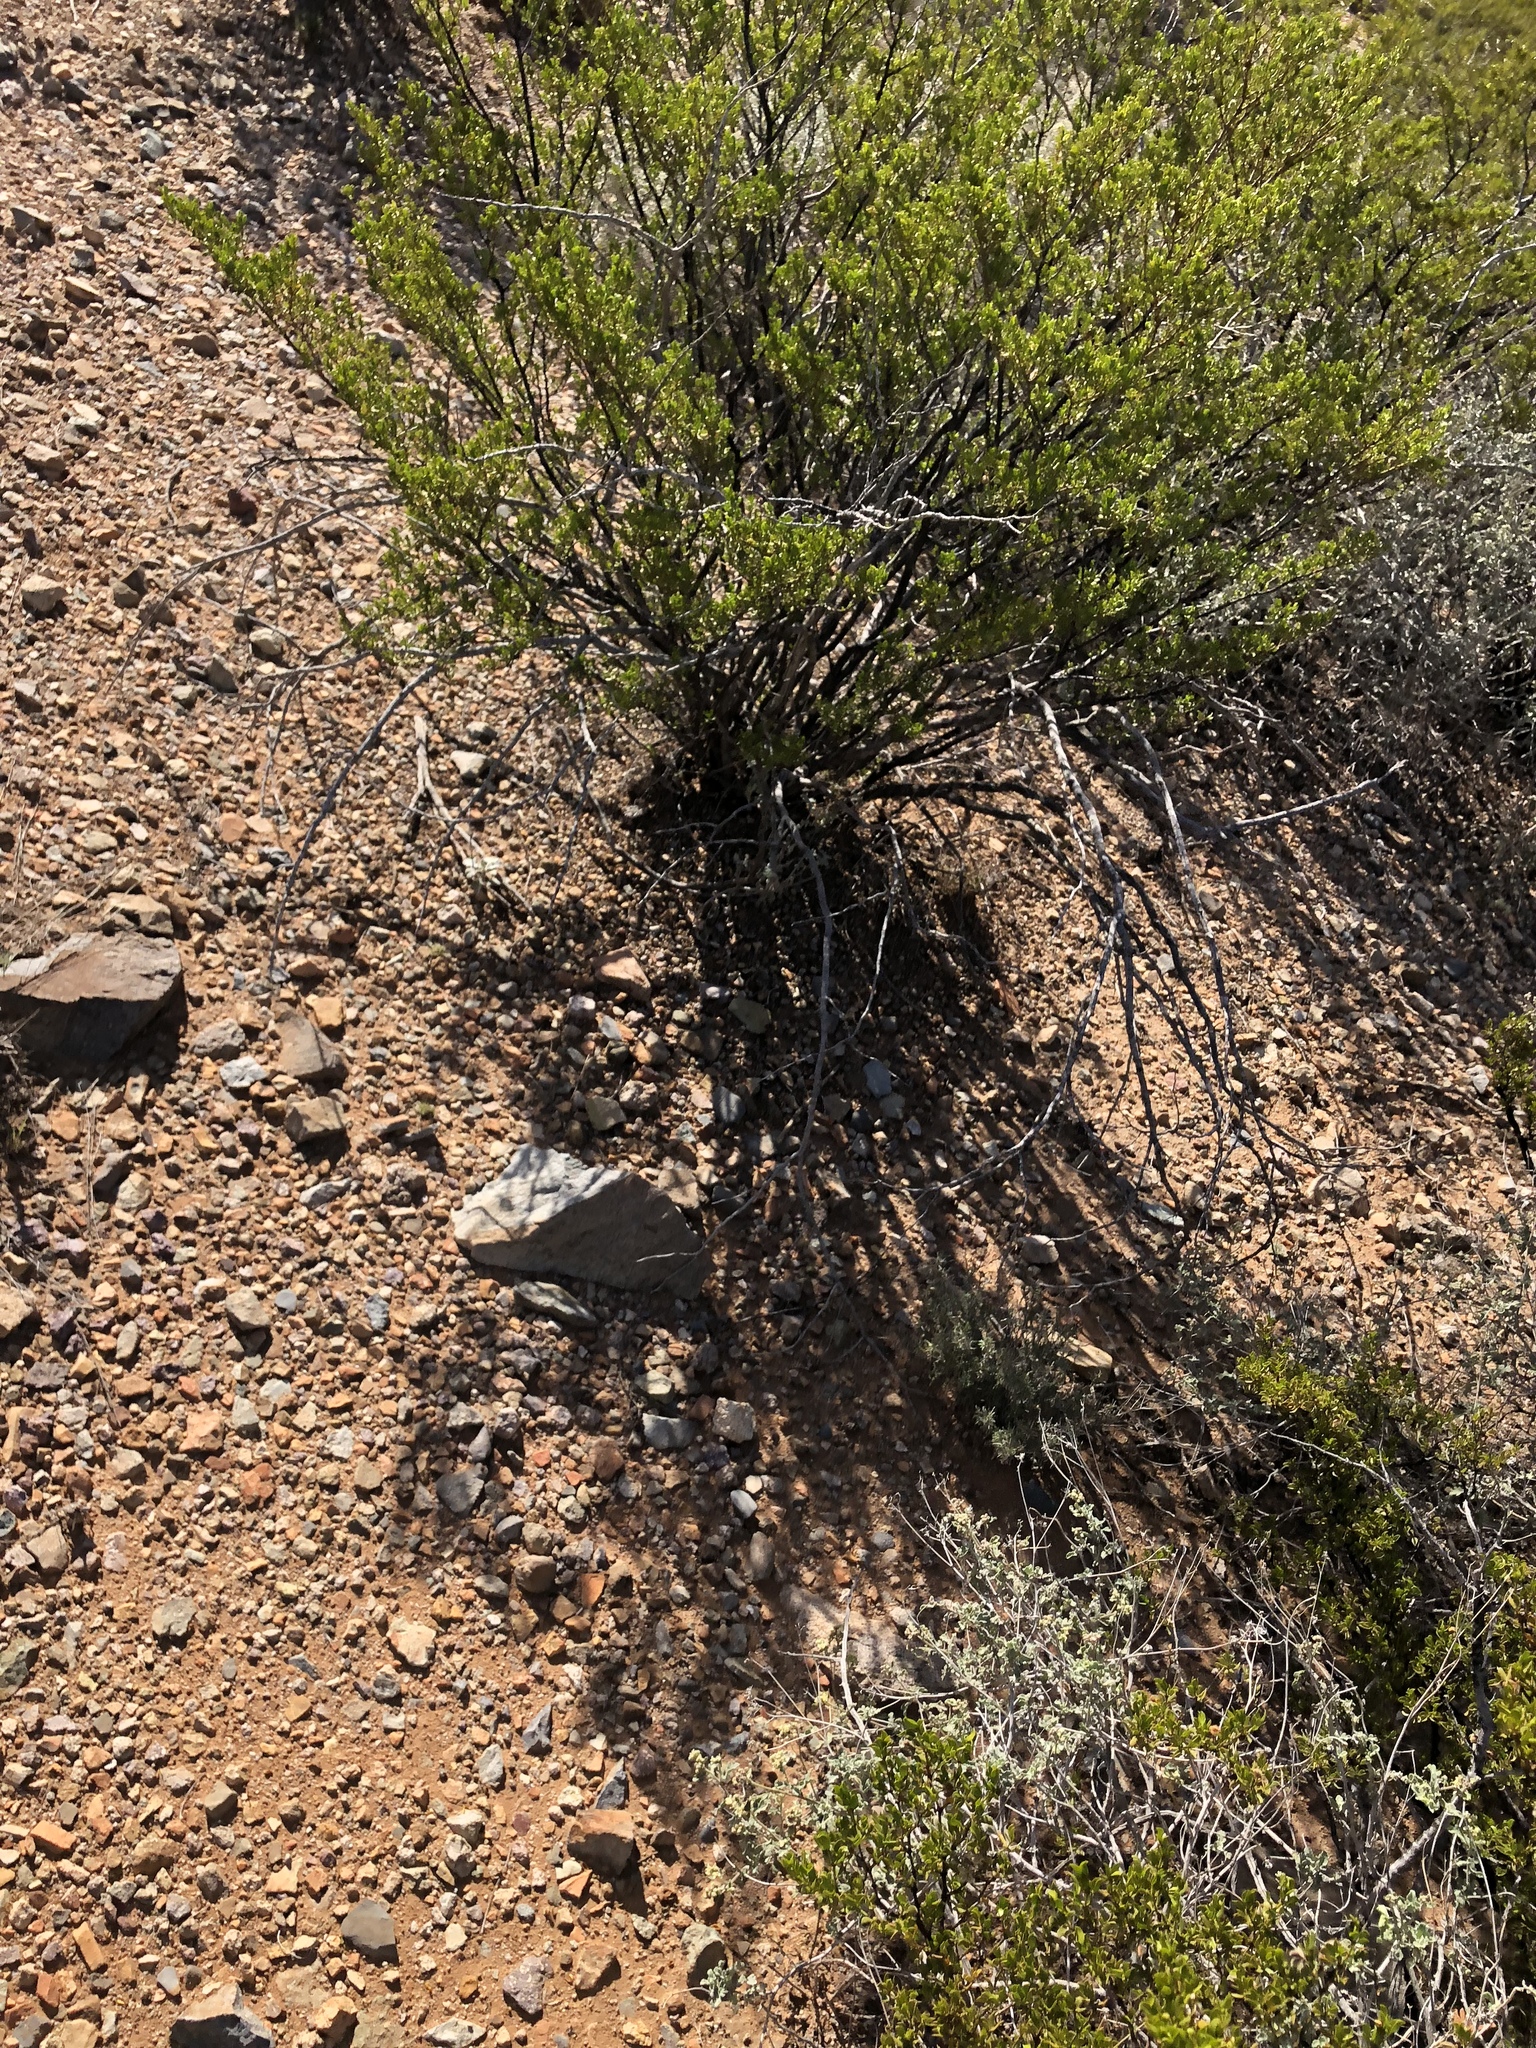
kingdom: Plantae
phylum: Tracheophyta
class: Magnoliopsida
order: Zygophyllales
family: Zygophyllaceae
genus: Larrea
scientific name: Larrea tridentata
